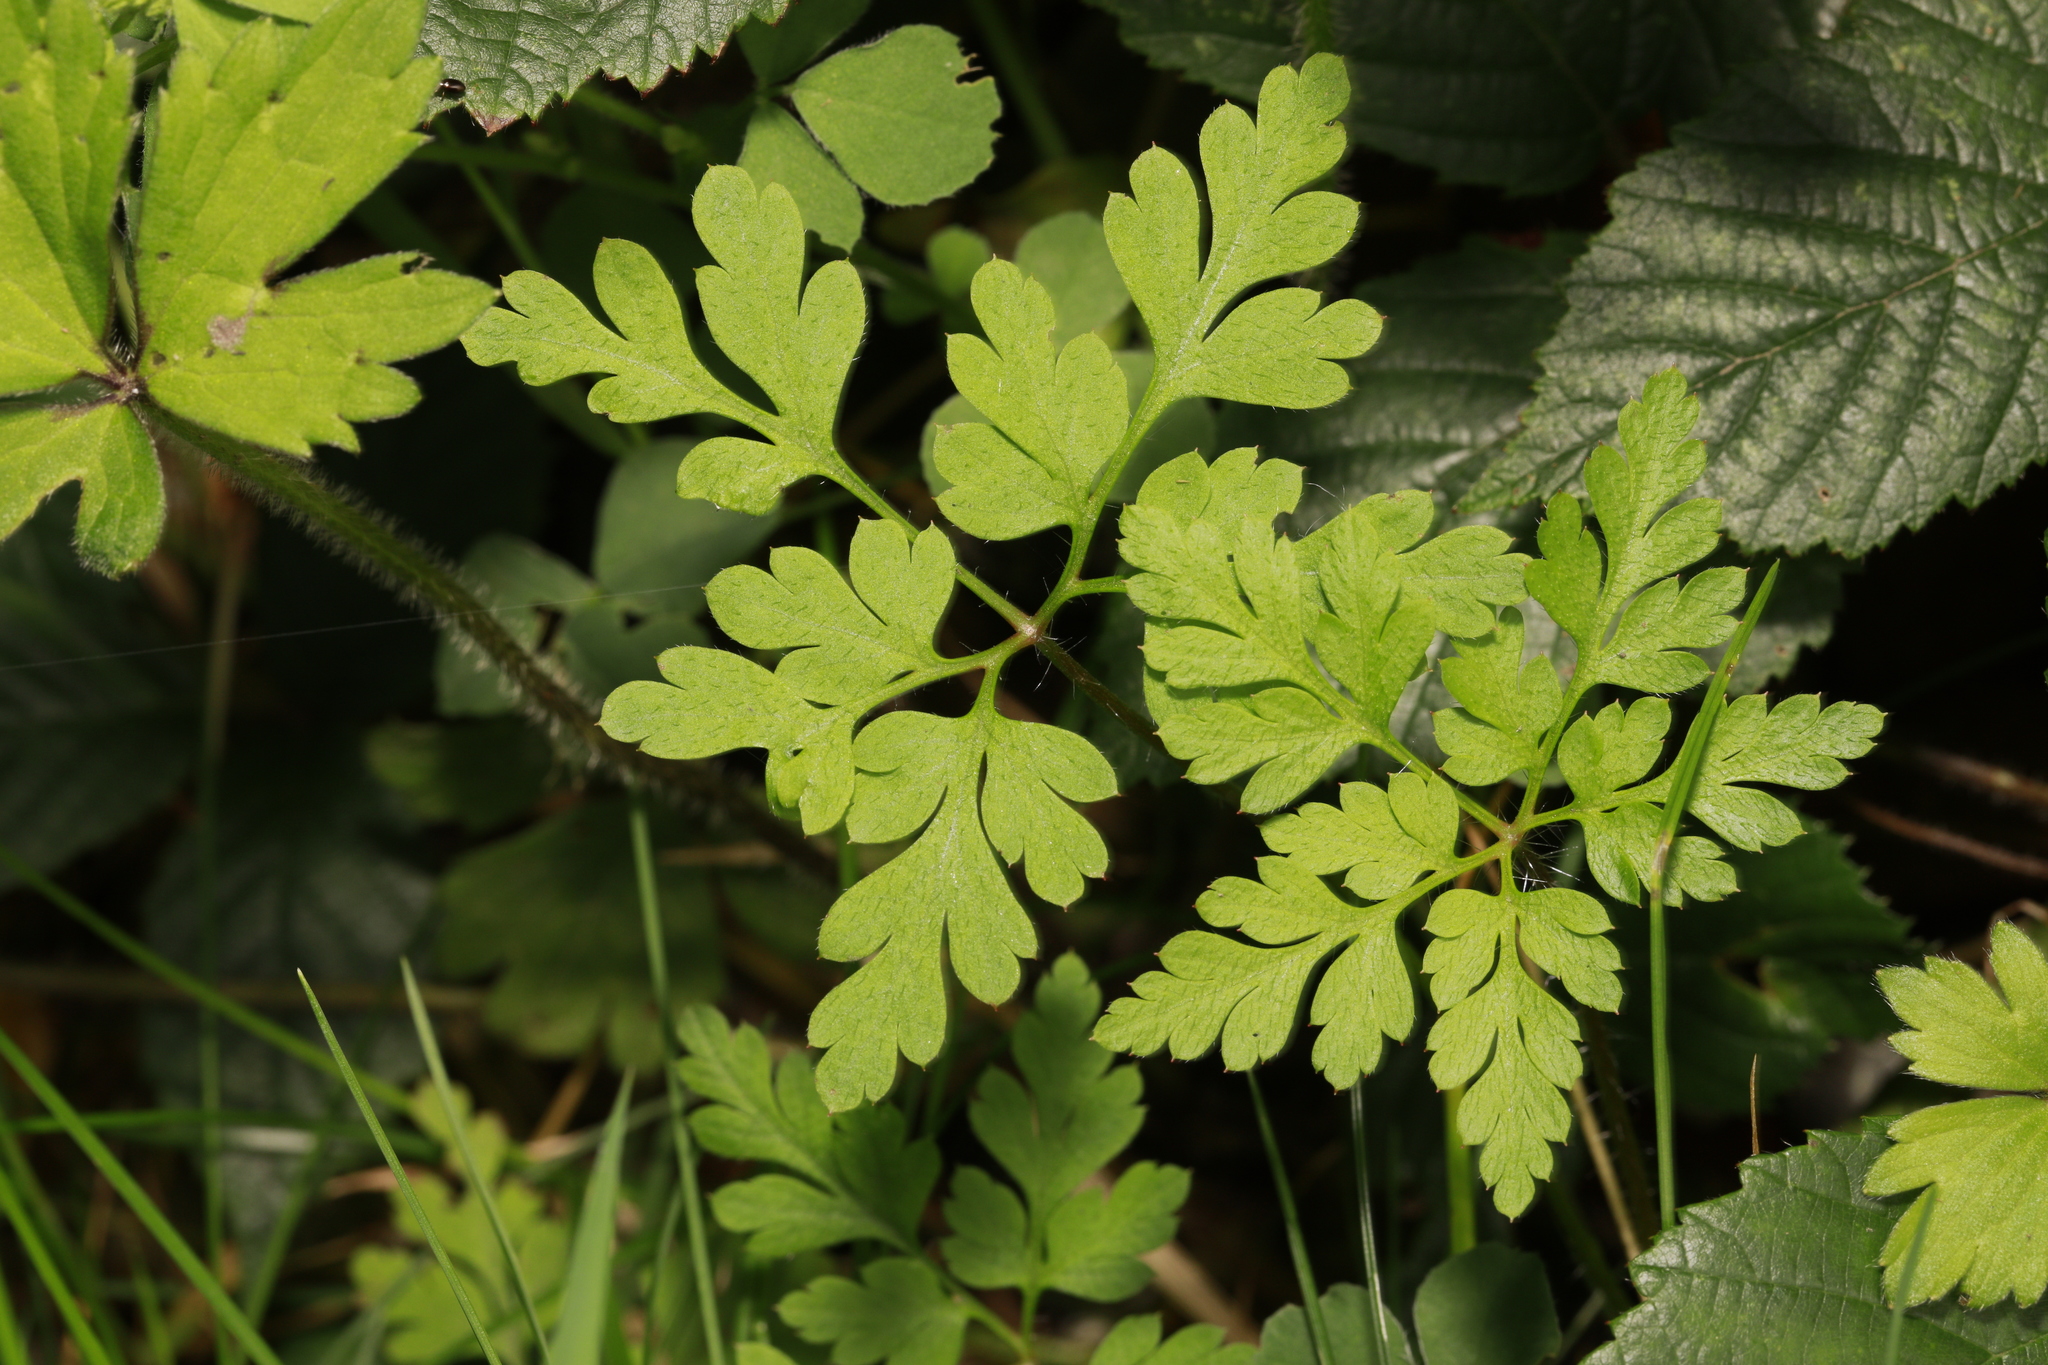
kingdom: Plantae
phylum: Tracheophyta
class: Magnoliopsida
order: Geraniales
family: Geraniaceae
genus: Geranium
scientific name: Geranium robertianum
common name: Herb-robert
